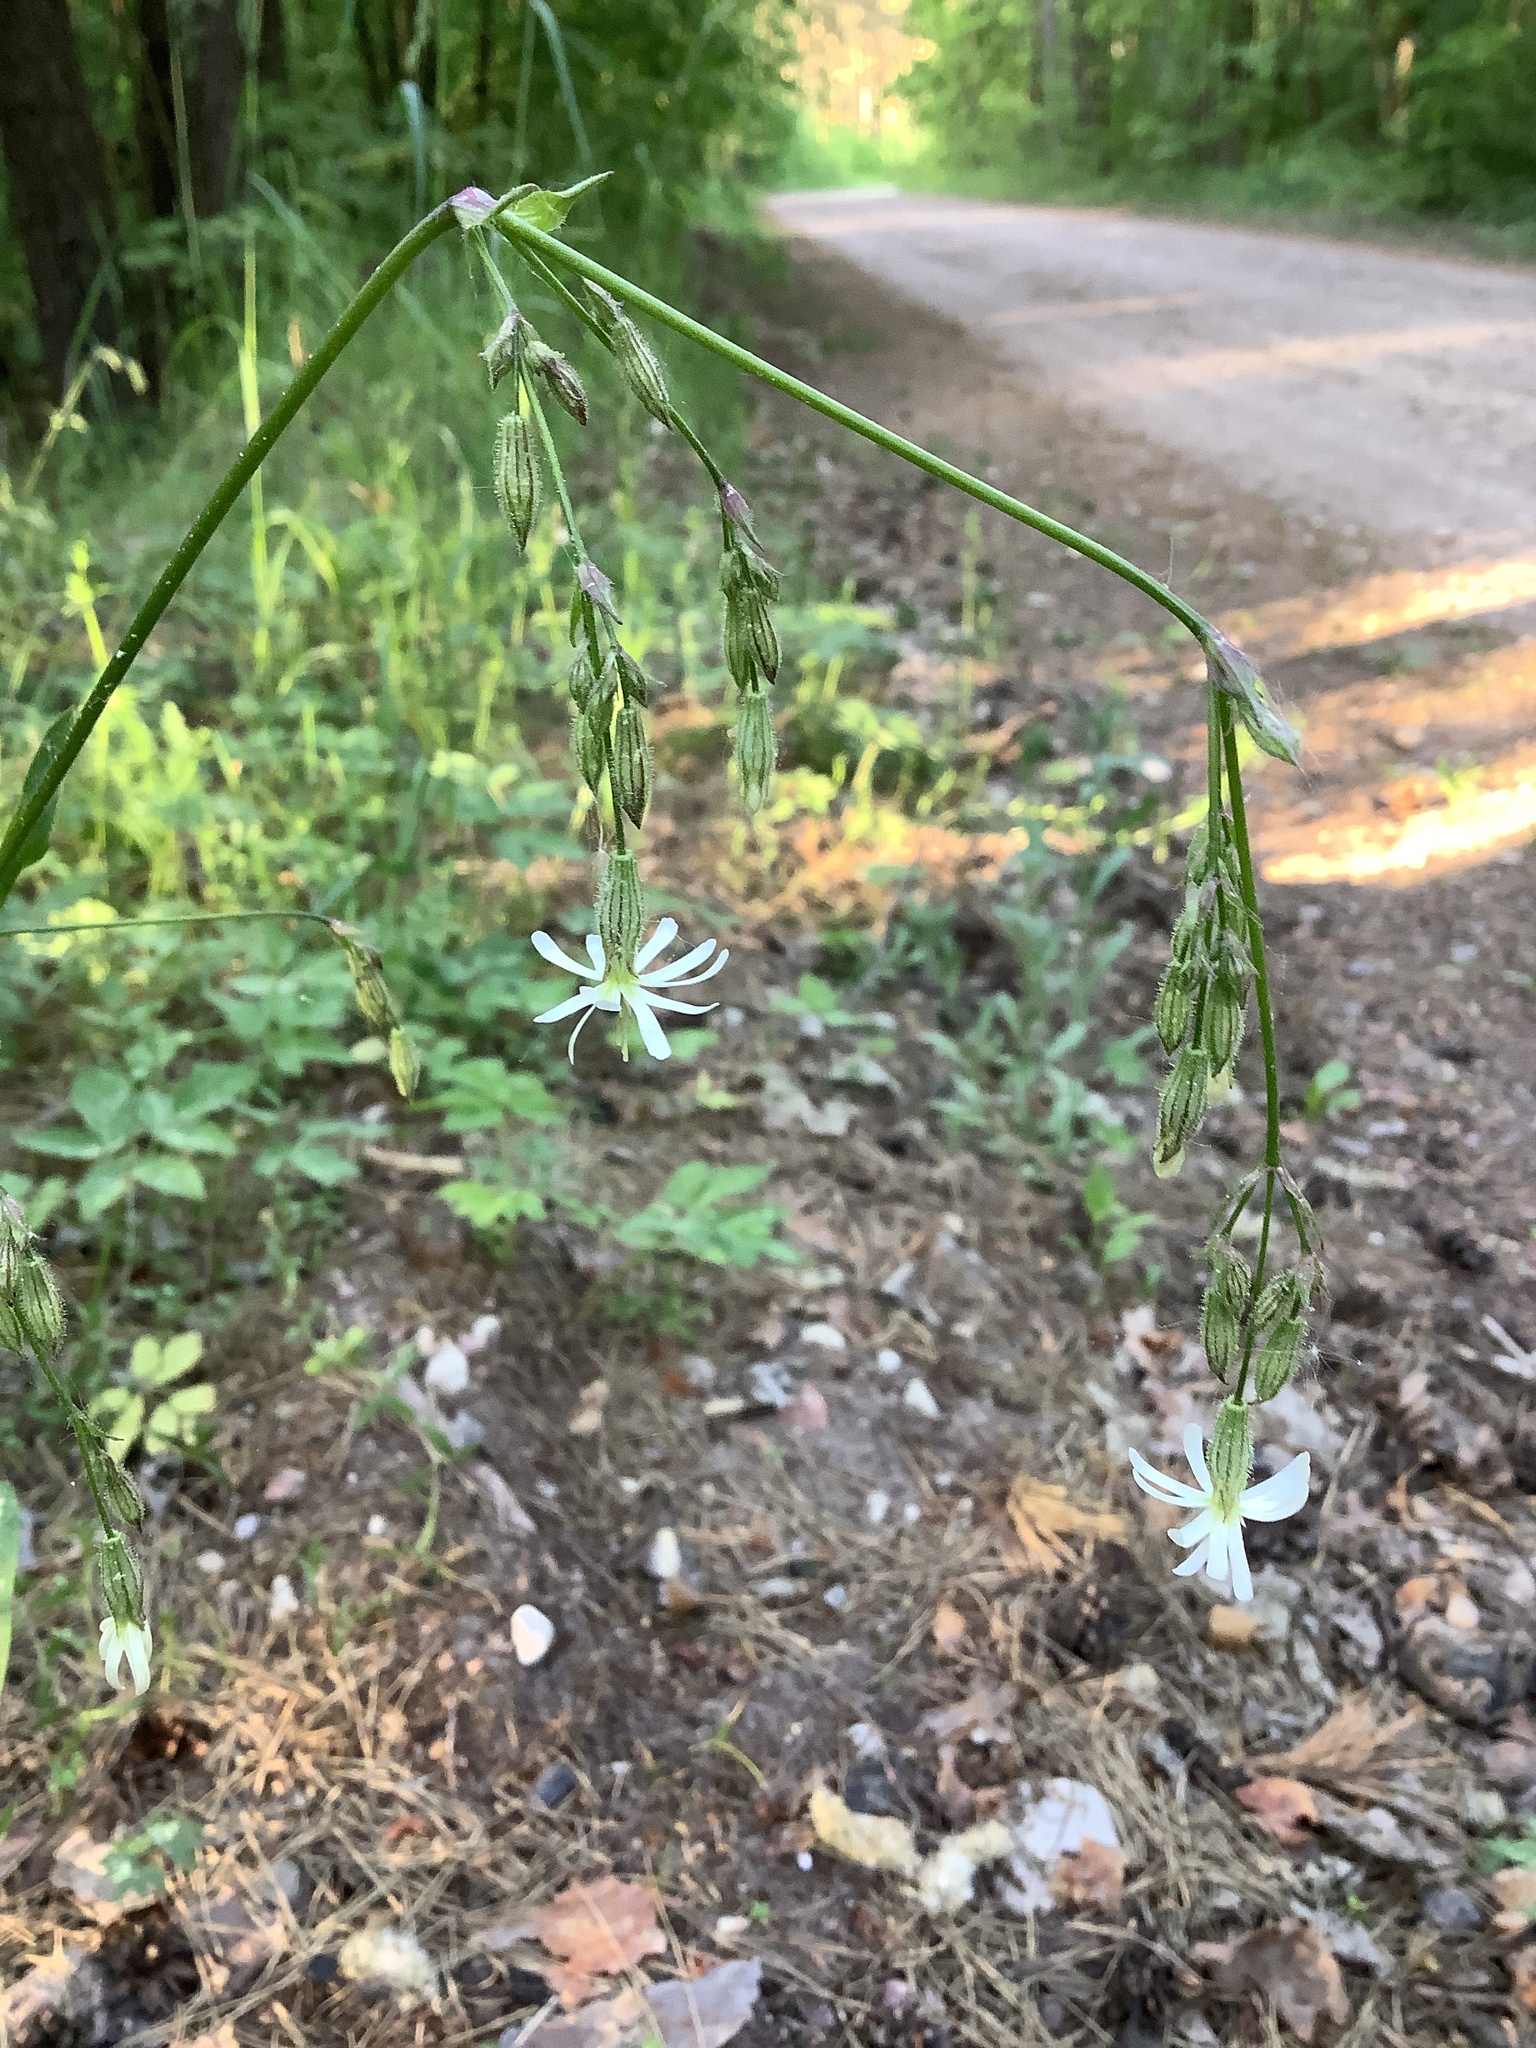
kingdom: Plantae
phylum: Tracheophyta
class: Magnoliopsida
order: Caryophyllales
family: Caryophyllaceae
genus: Silene
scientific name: Silene nutans
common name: Nottingham catchfly
